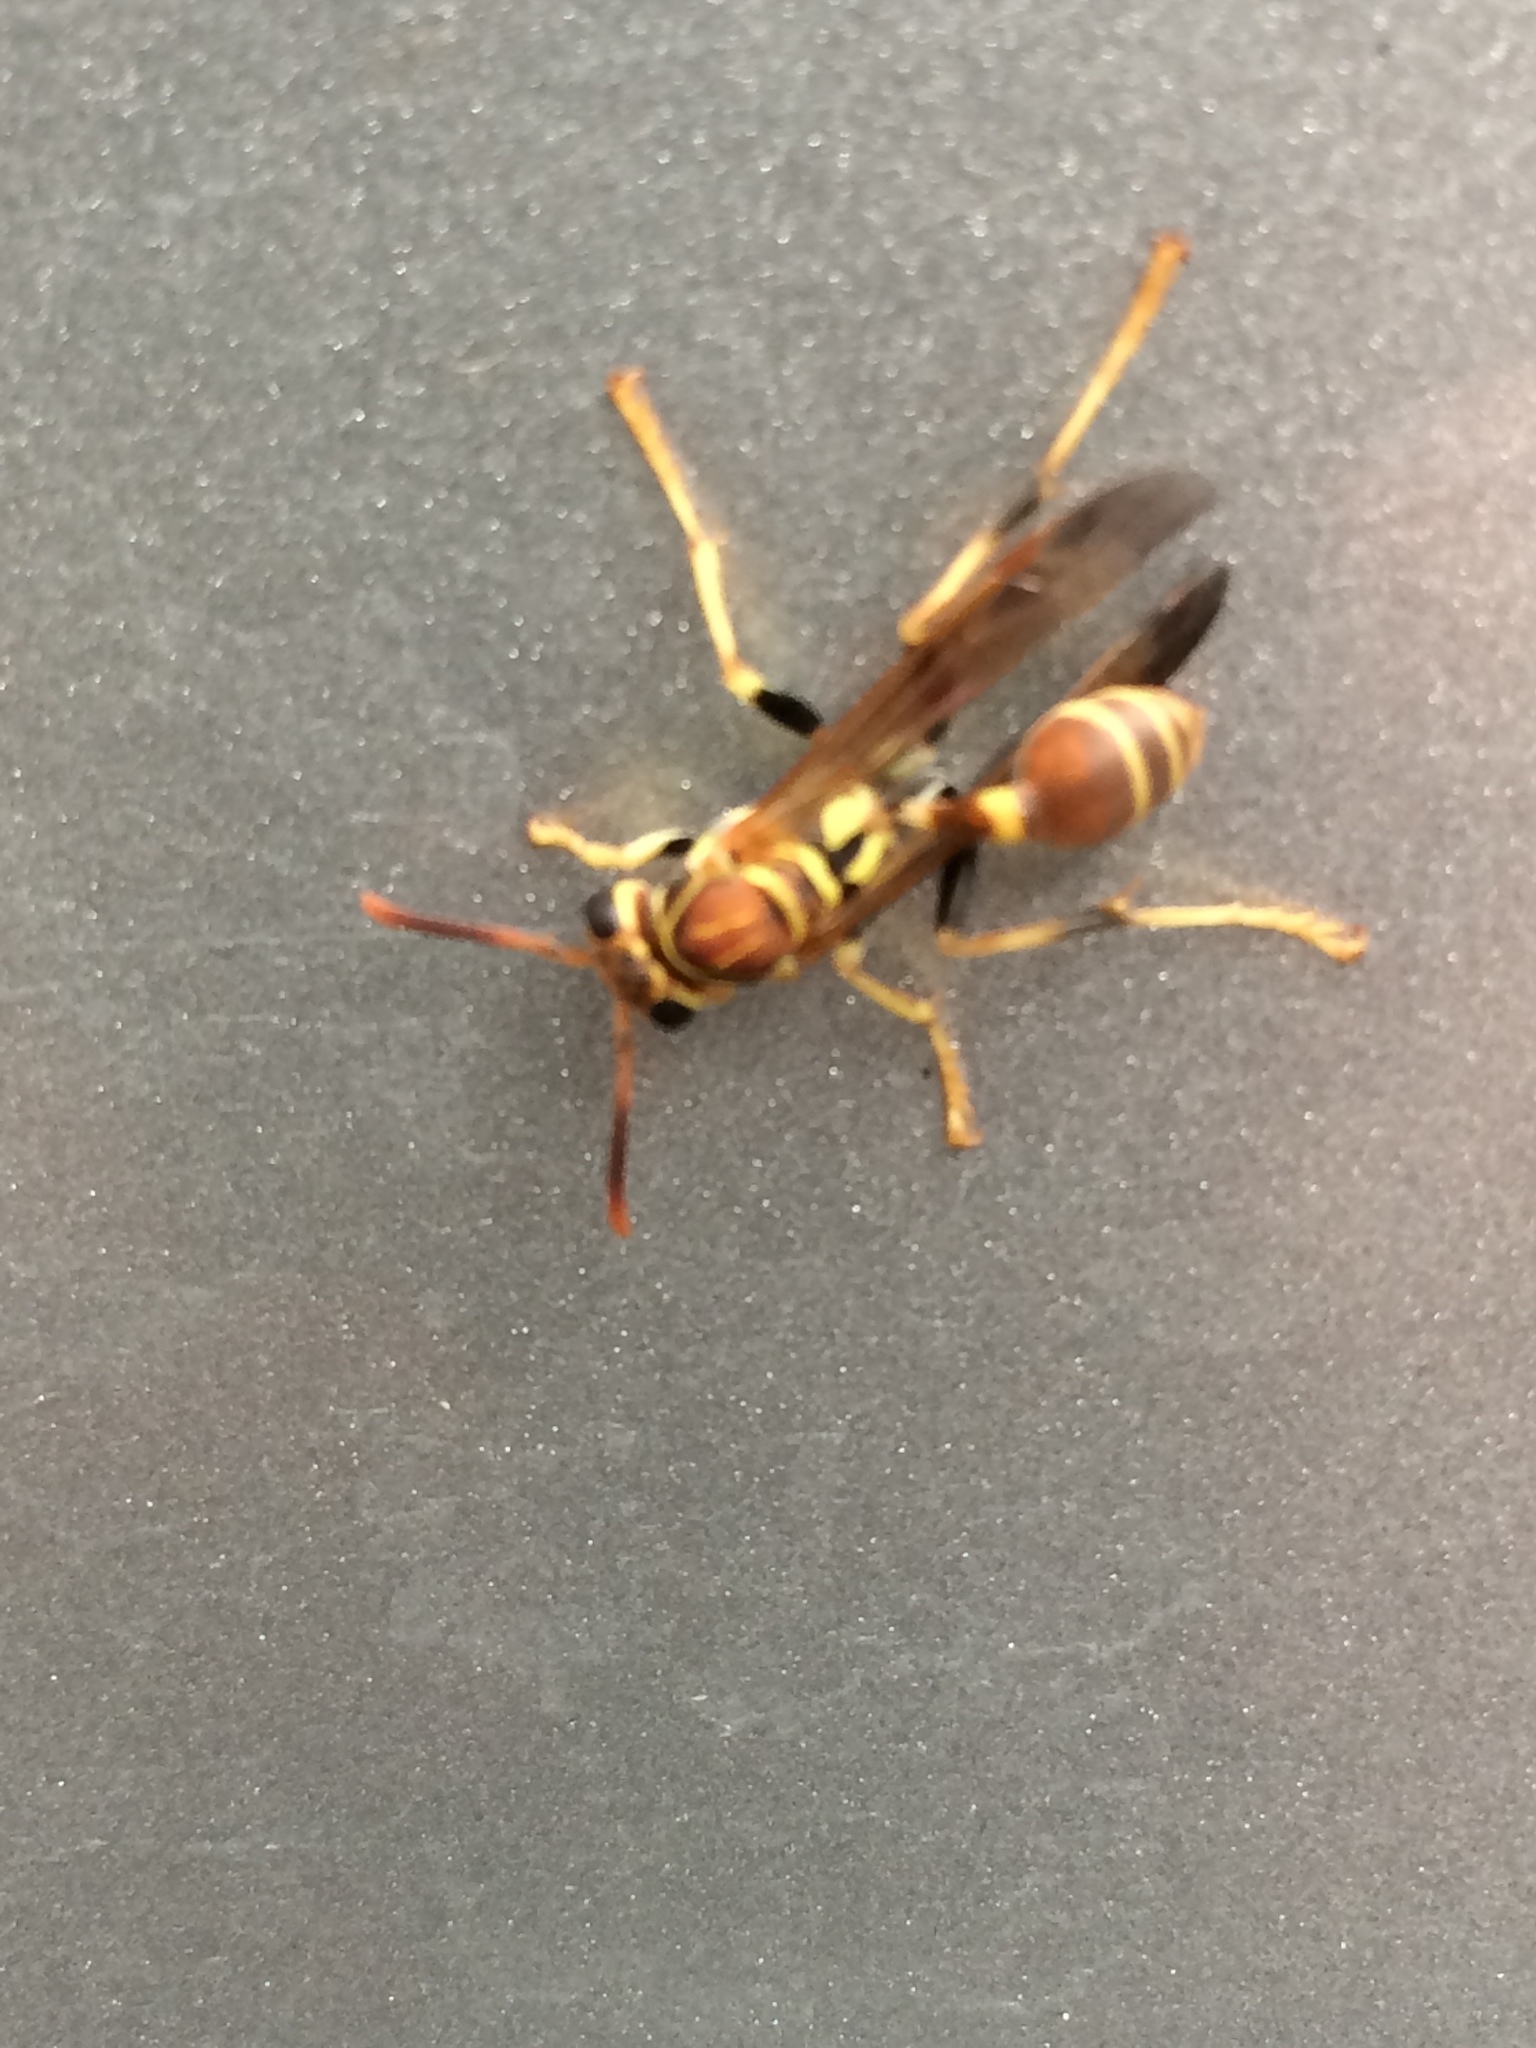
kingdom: Animalia
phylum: Arthropoda
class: Insecta
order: Hymenoptera
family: Vespidae
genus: Mischocyttarus
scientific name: Mischocyttarus mexicanus
